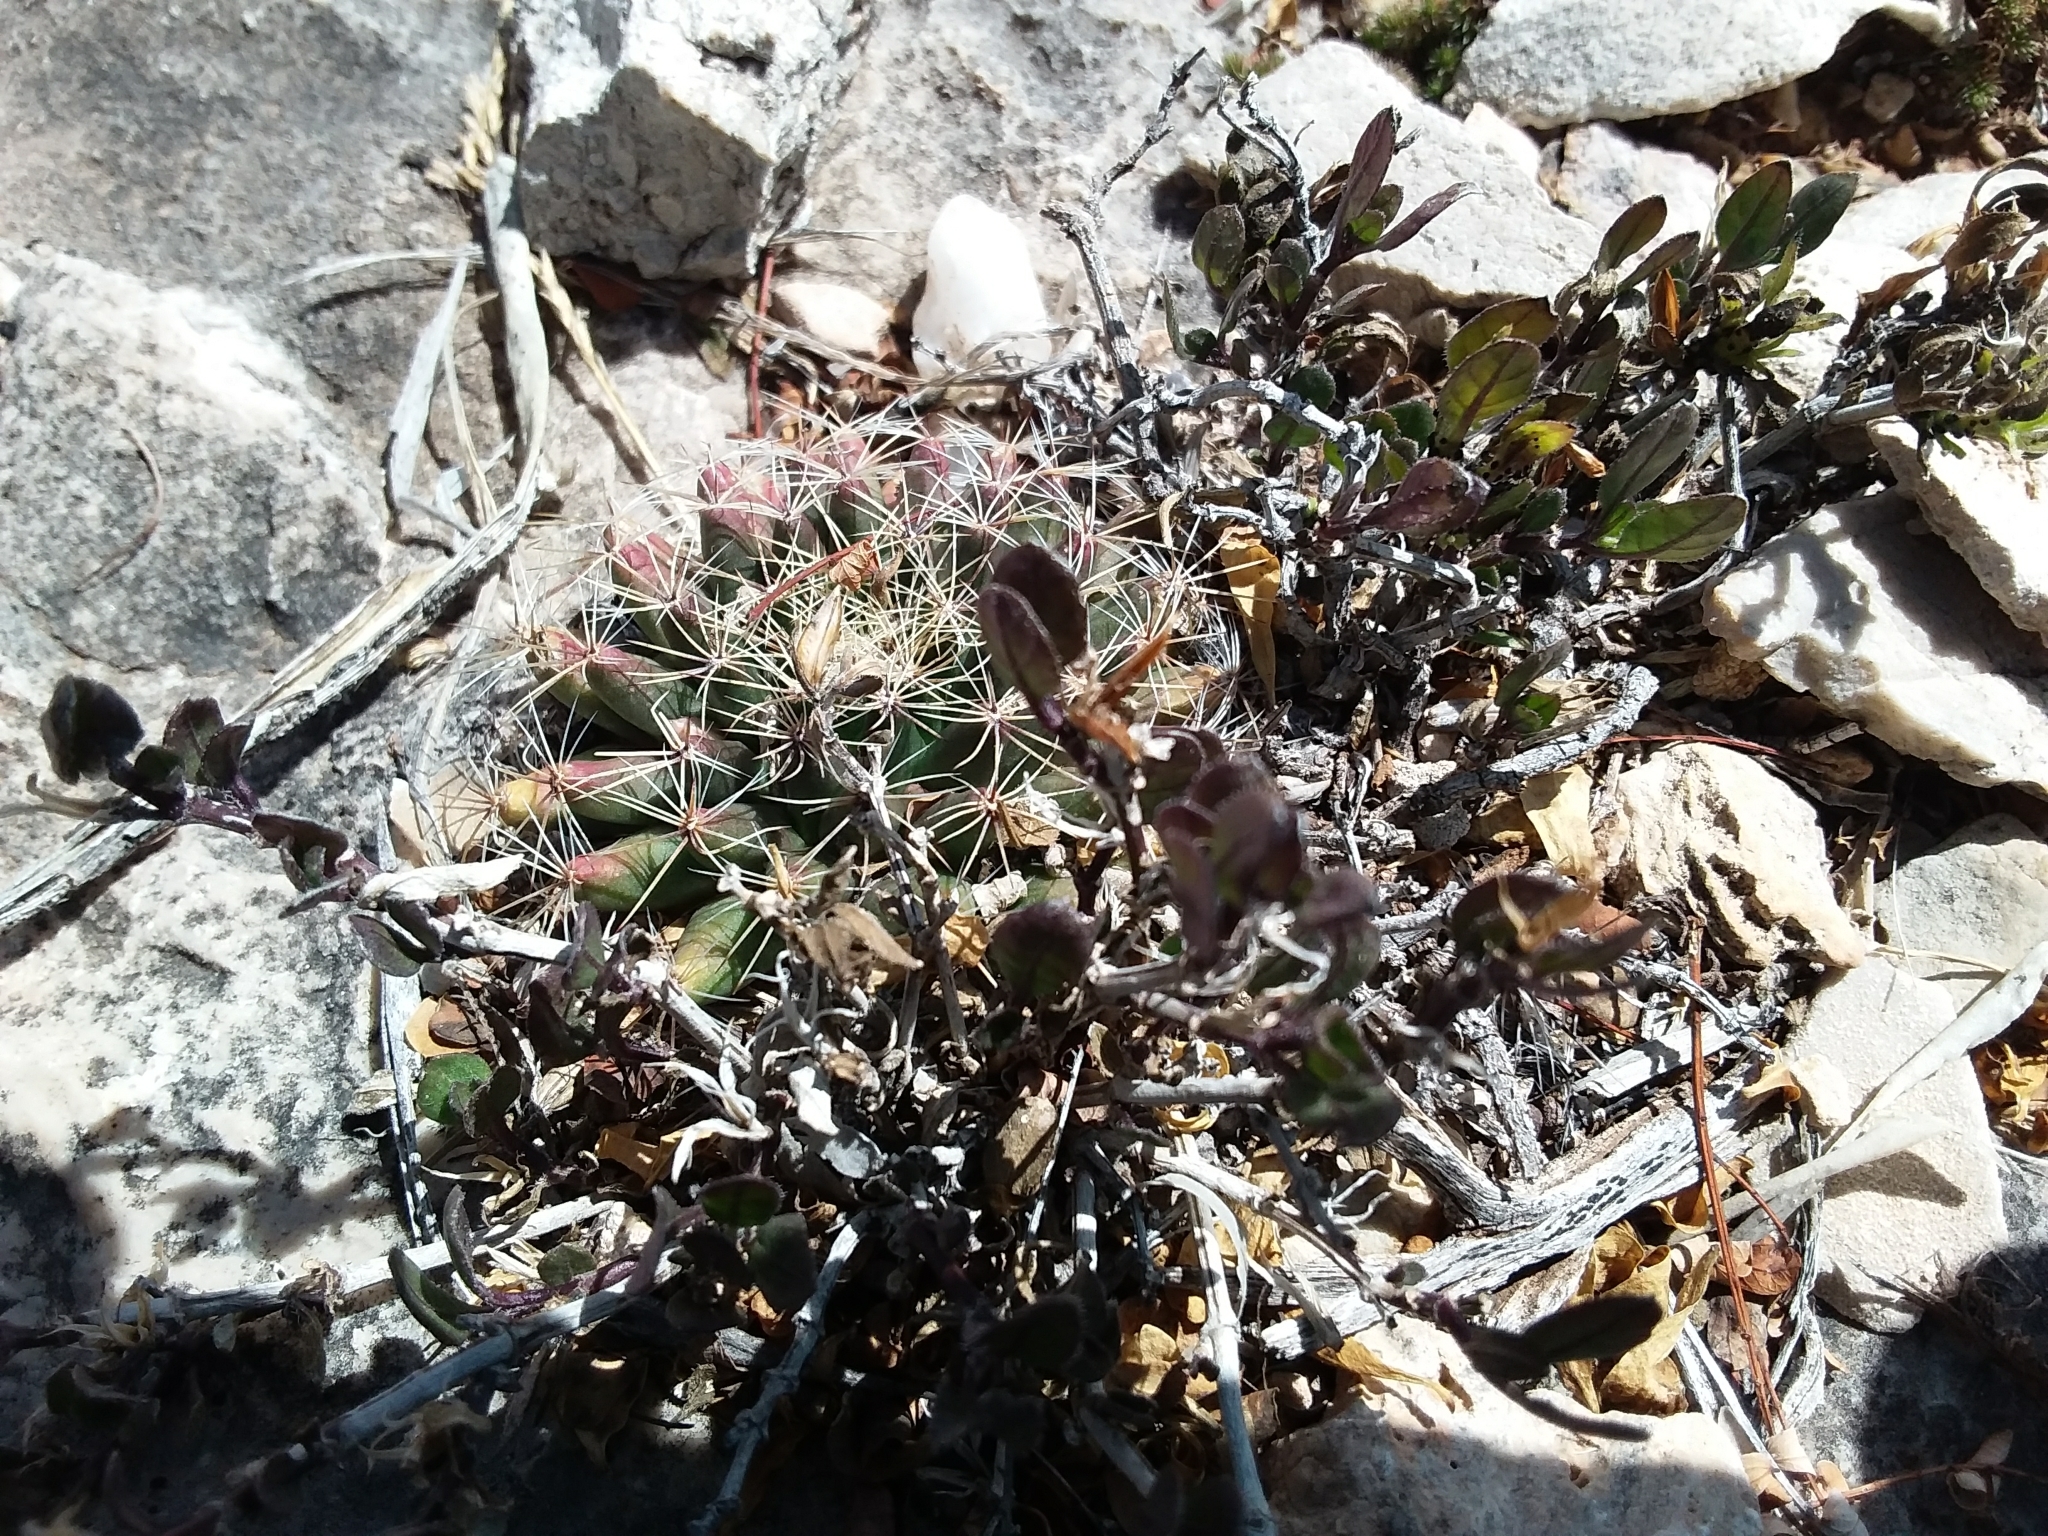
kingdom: Plantae
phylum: Tracheophyta
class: Magnoliopsida
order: Caryophyllales
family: Cactaceae
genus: Mammillaria
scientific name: Mammillaria heyderi
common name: Little nipple cactus
